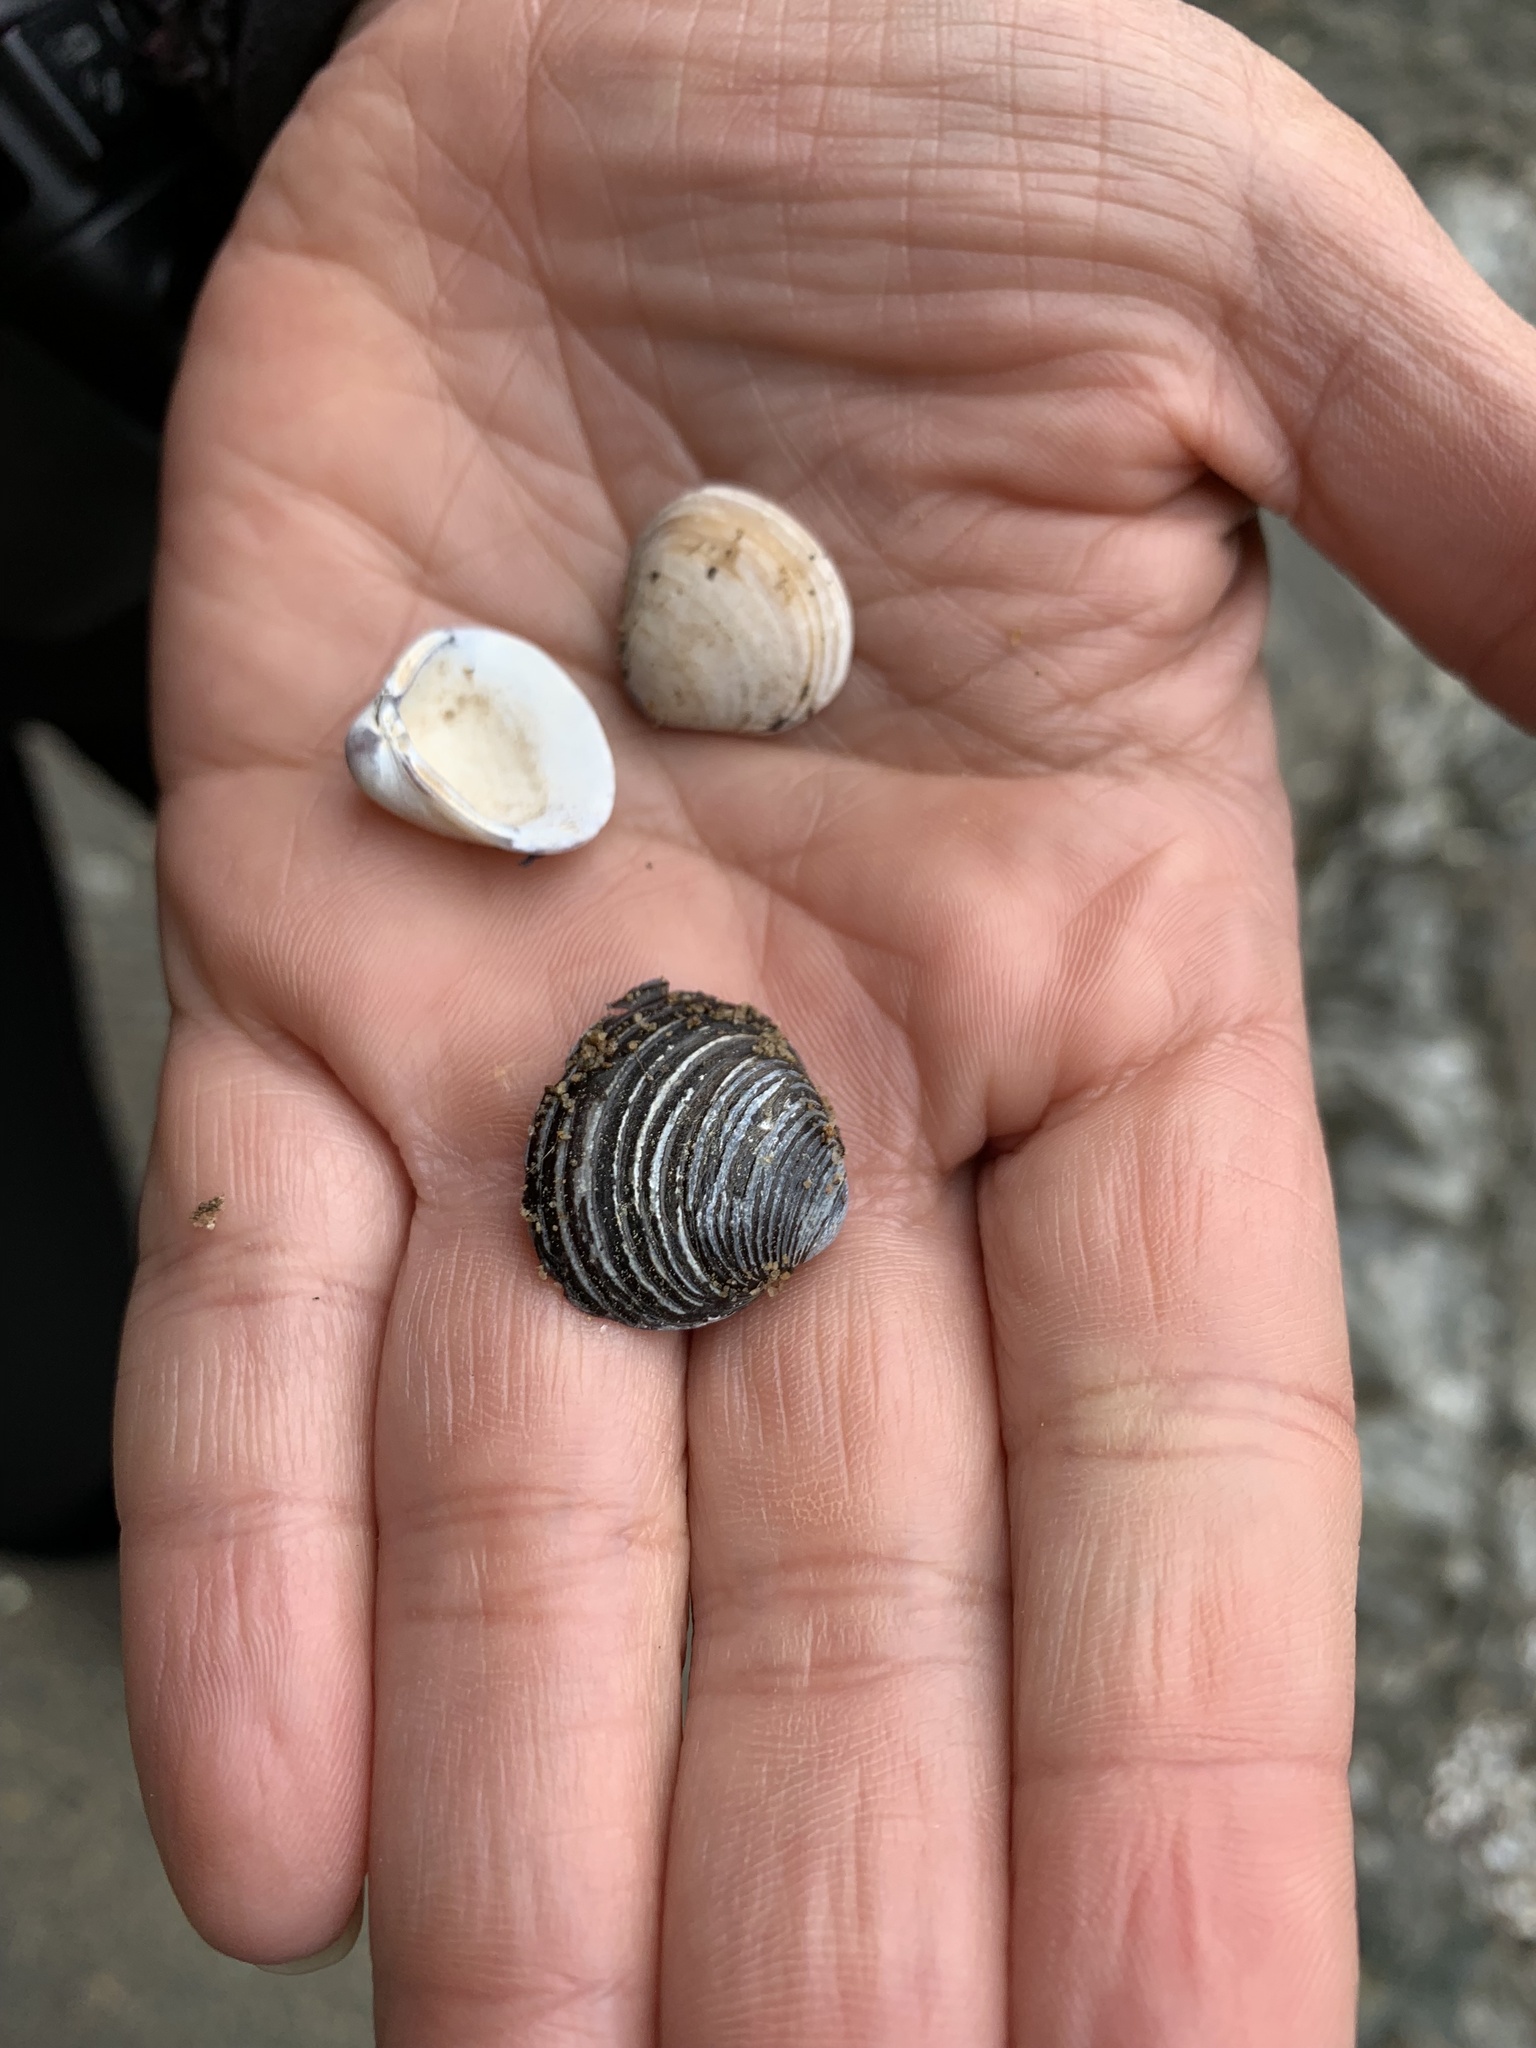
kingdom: Animalia
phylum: Mollusca
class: Bivalvia
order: Venerida
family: Cyrenidae
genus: Corbicula
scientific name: Corbicula fluminea
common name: Asian clam
